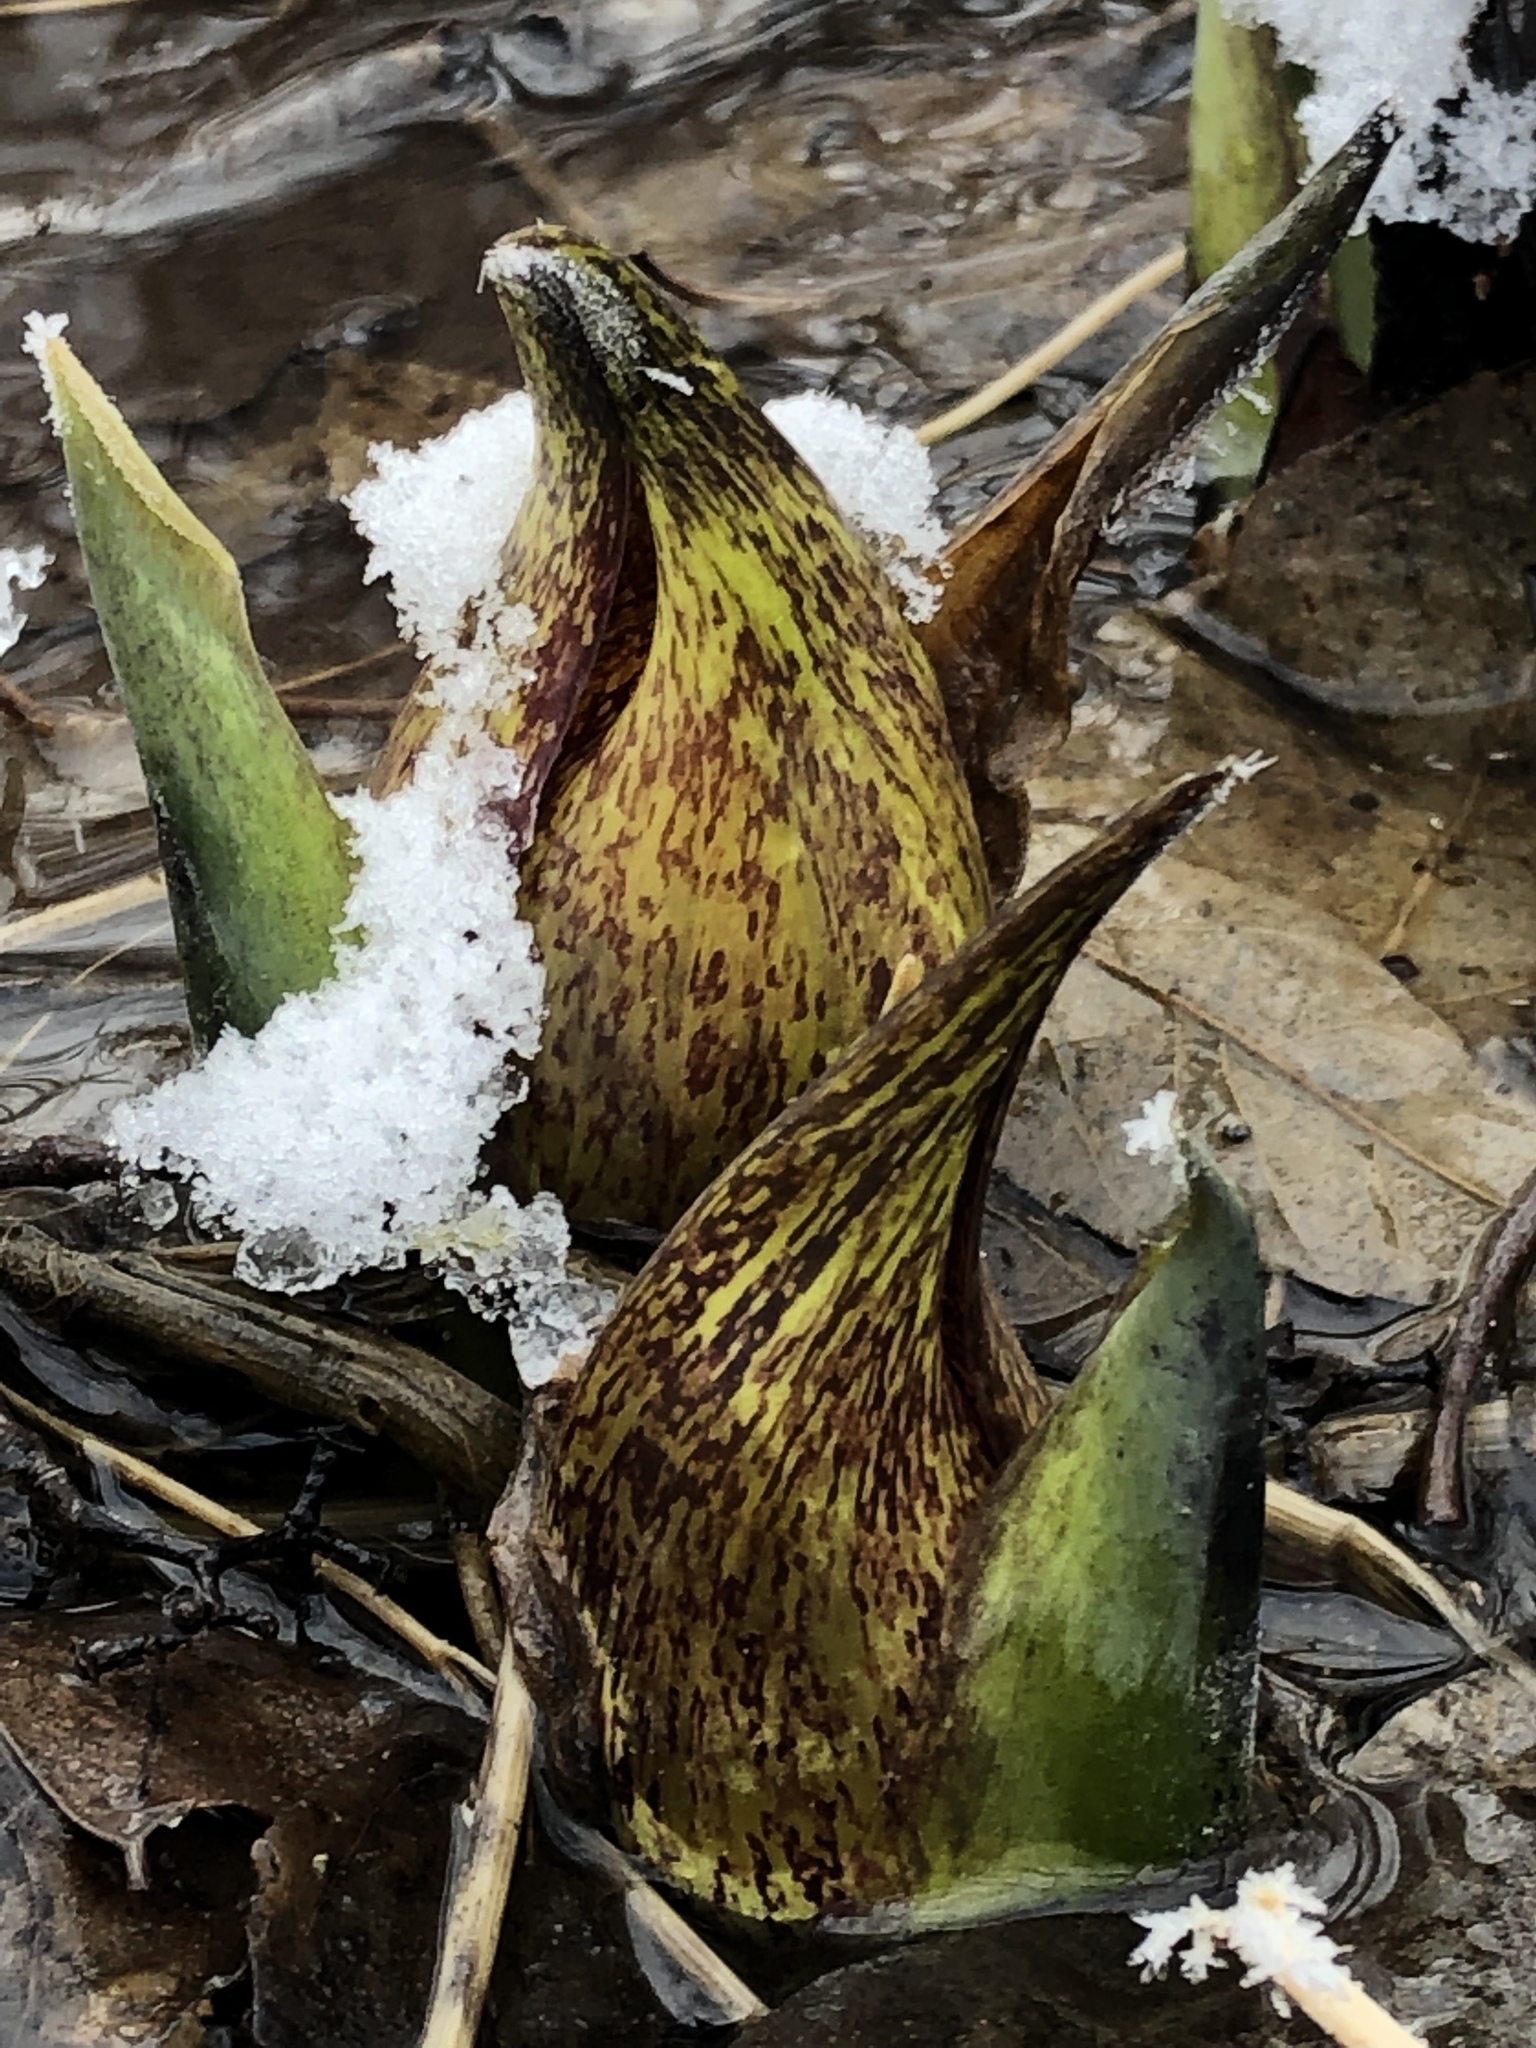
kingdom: Plantae
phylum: Tracheophyta
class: Liliopsida
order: Alismatales
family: Araceae
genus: Symplocarpus
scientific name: Symplocarpus foetidus
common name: Eastern skunk cabbage
